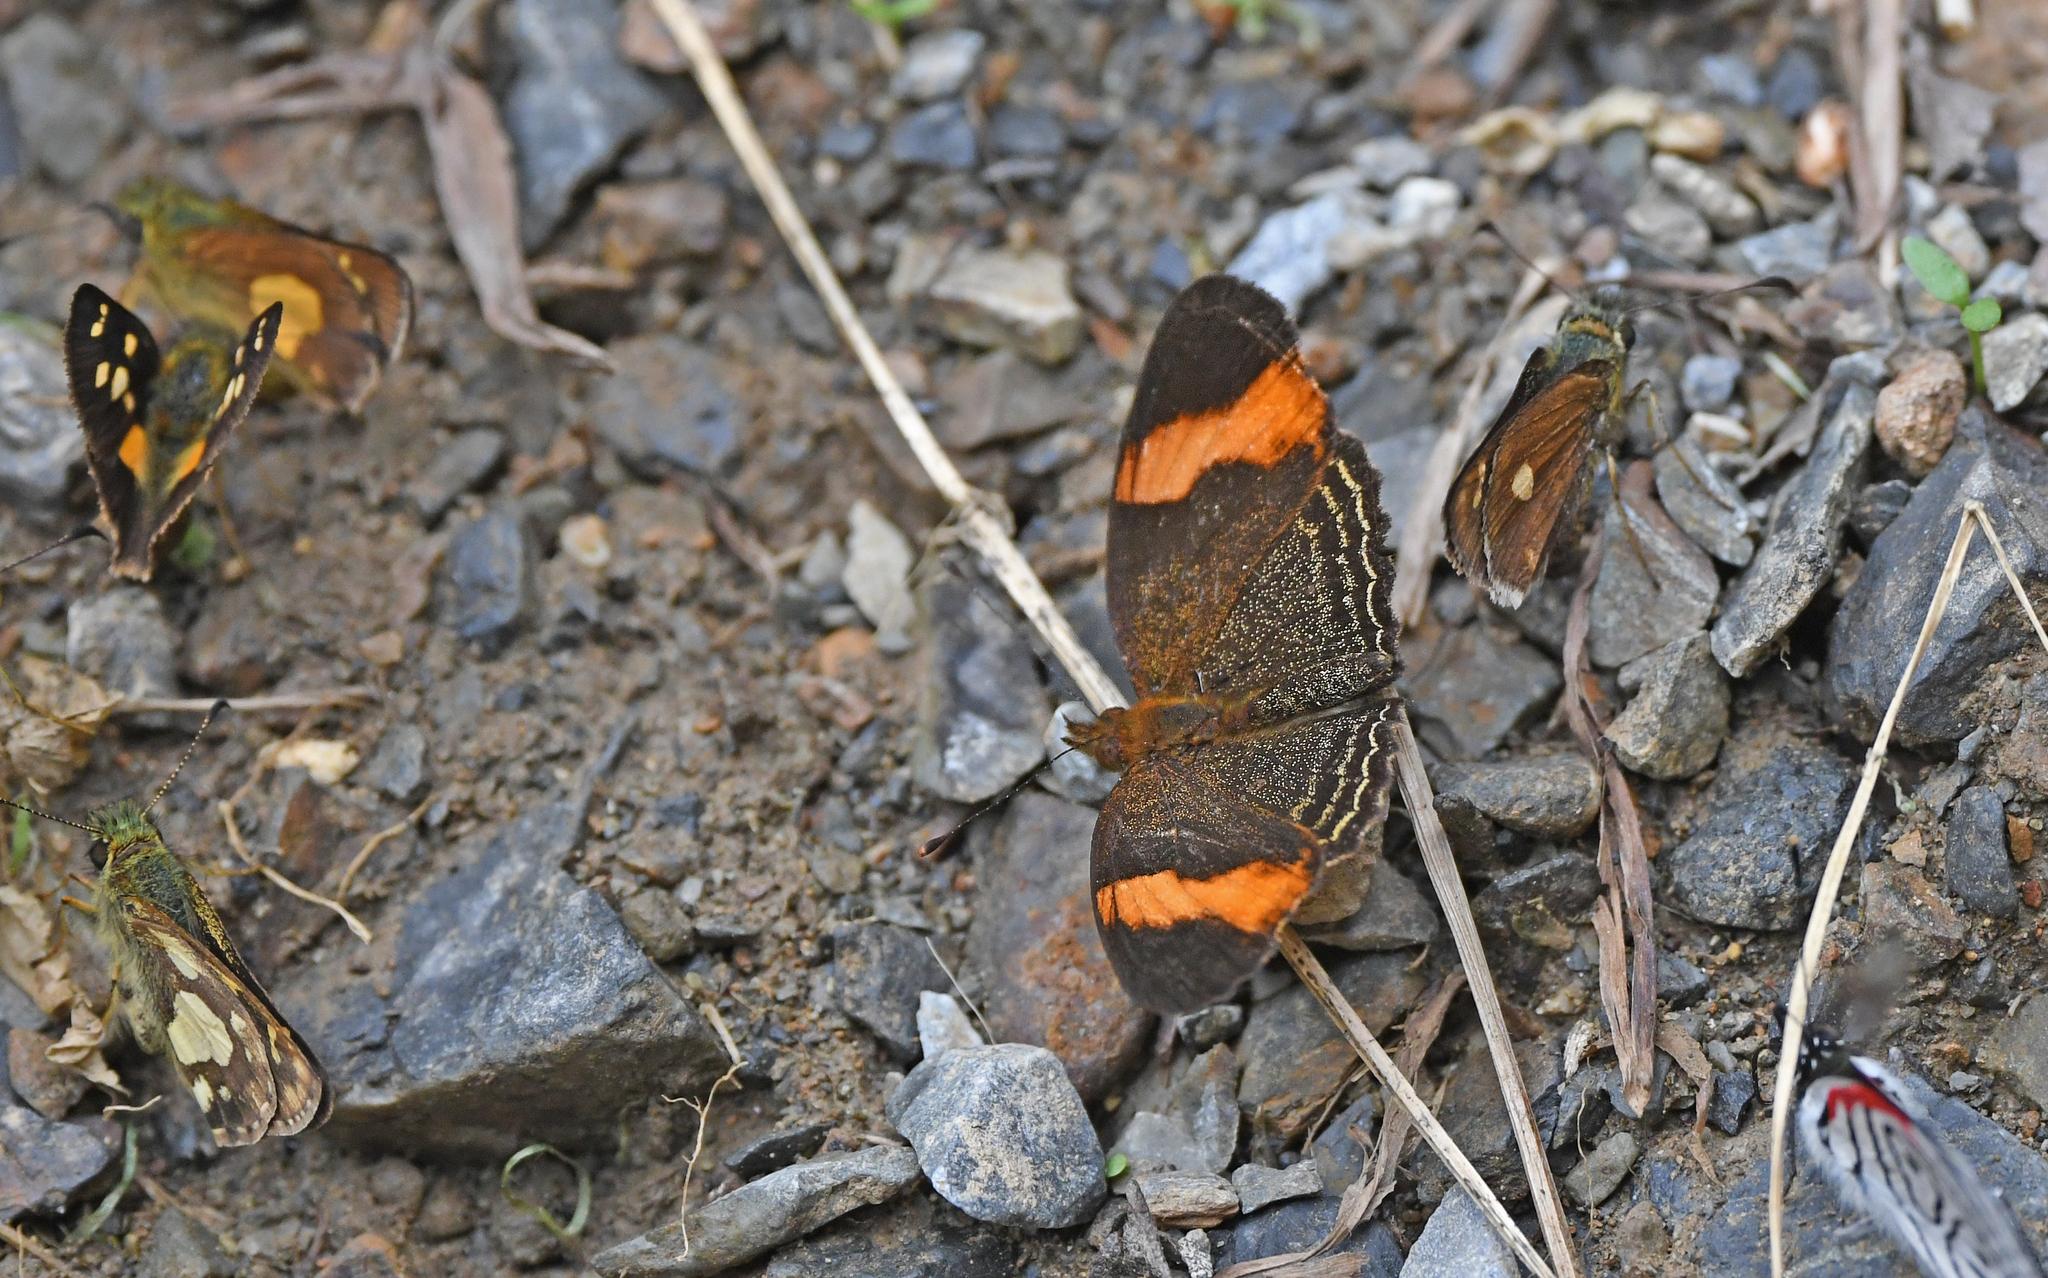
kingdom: Animalia
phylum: Arthropoda
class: Insecta
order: Lepidoptera
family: Nymphalidae
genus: Telenassa
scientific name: Telenassa jana
